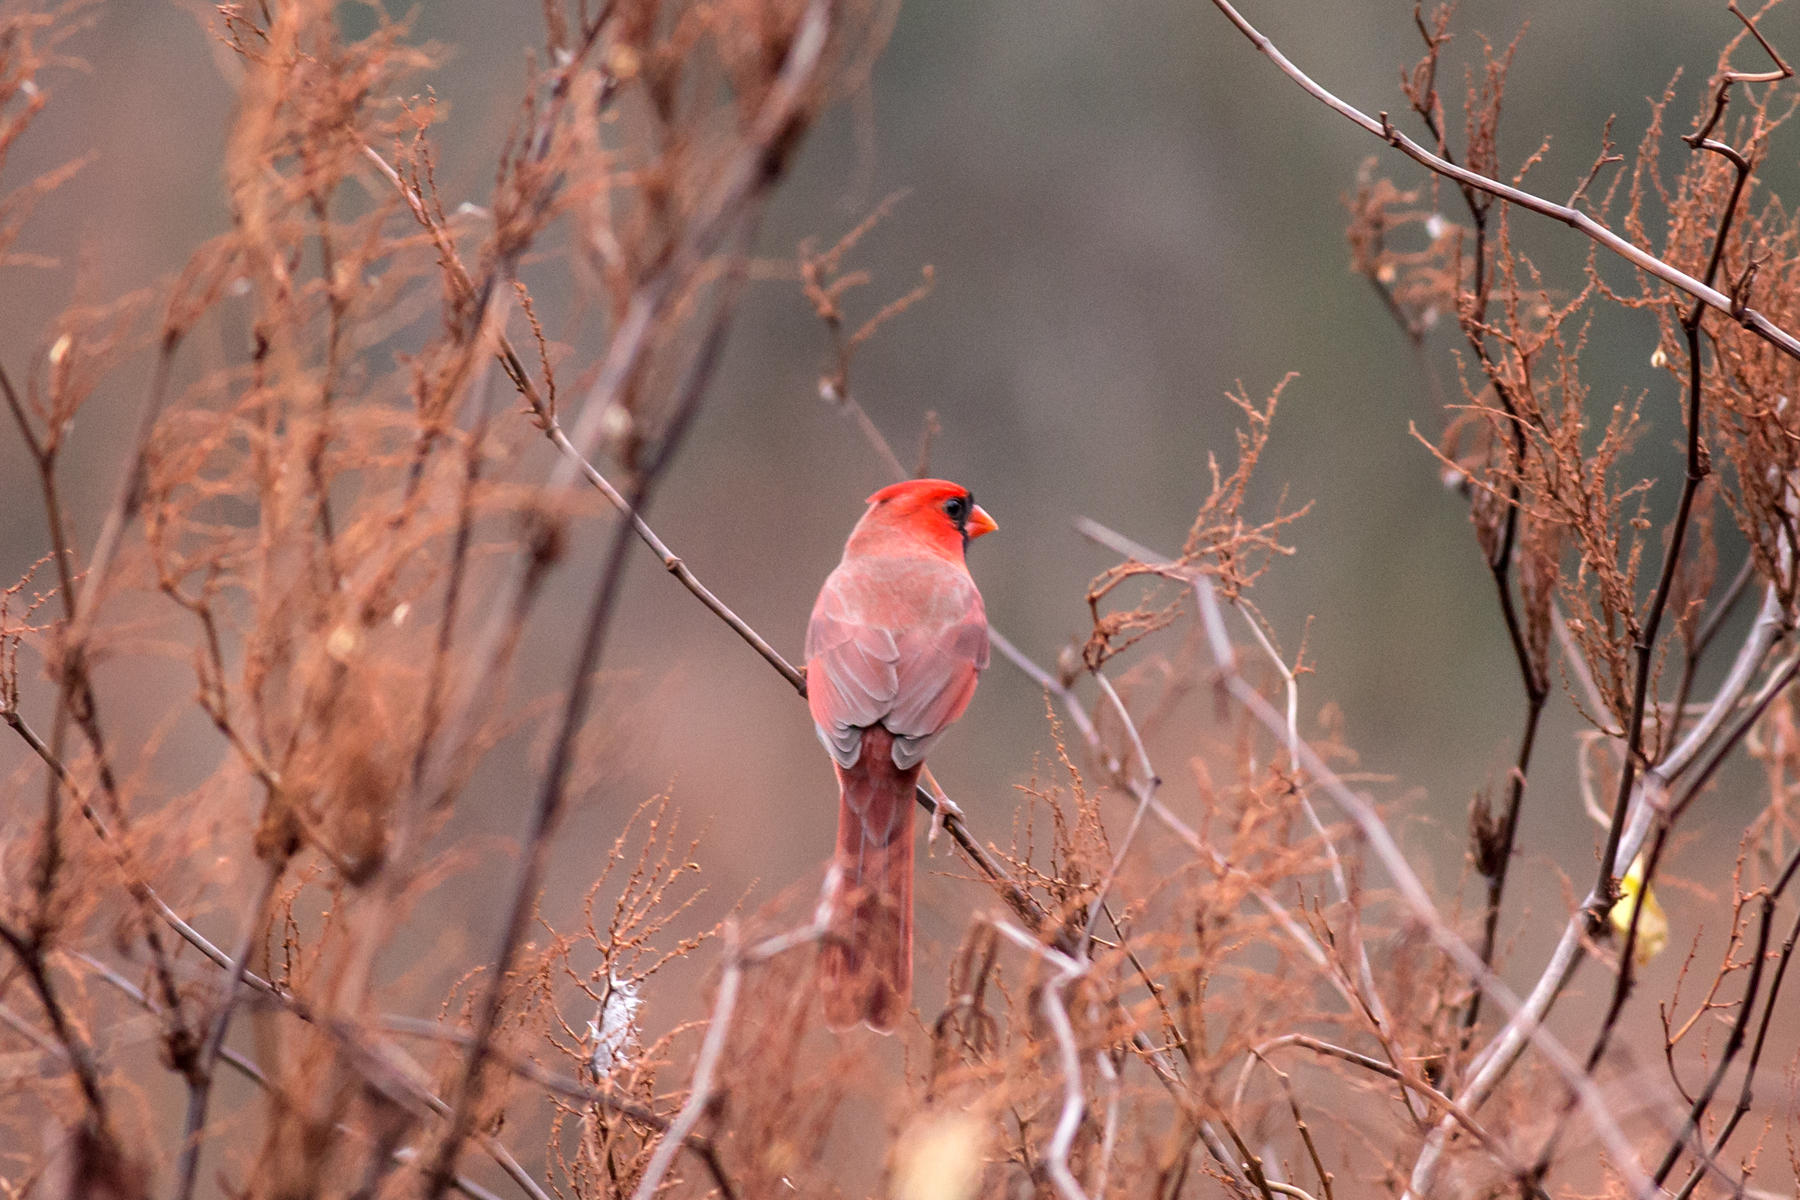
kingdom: Animalia
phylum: Chordata
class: Aves
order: Passeriformes
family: Cardinalidae
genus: Cardinalis
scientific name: Cardinalis cardinalis
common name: Northern cardinal
